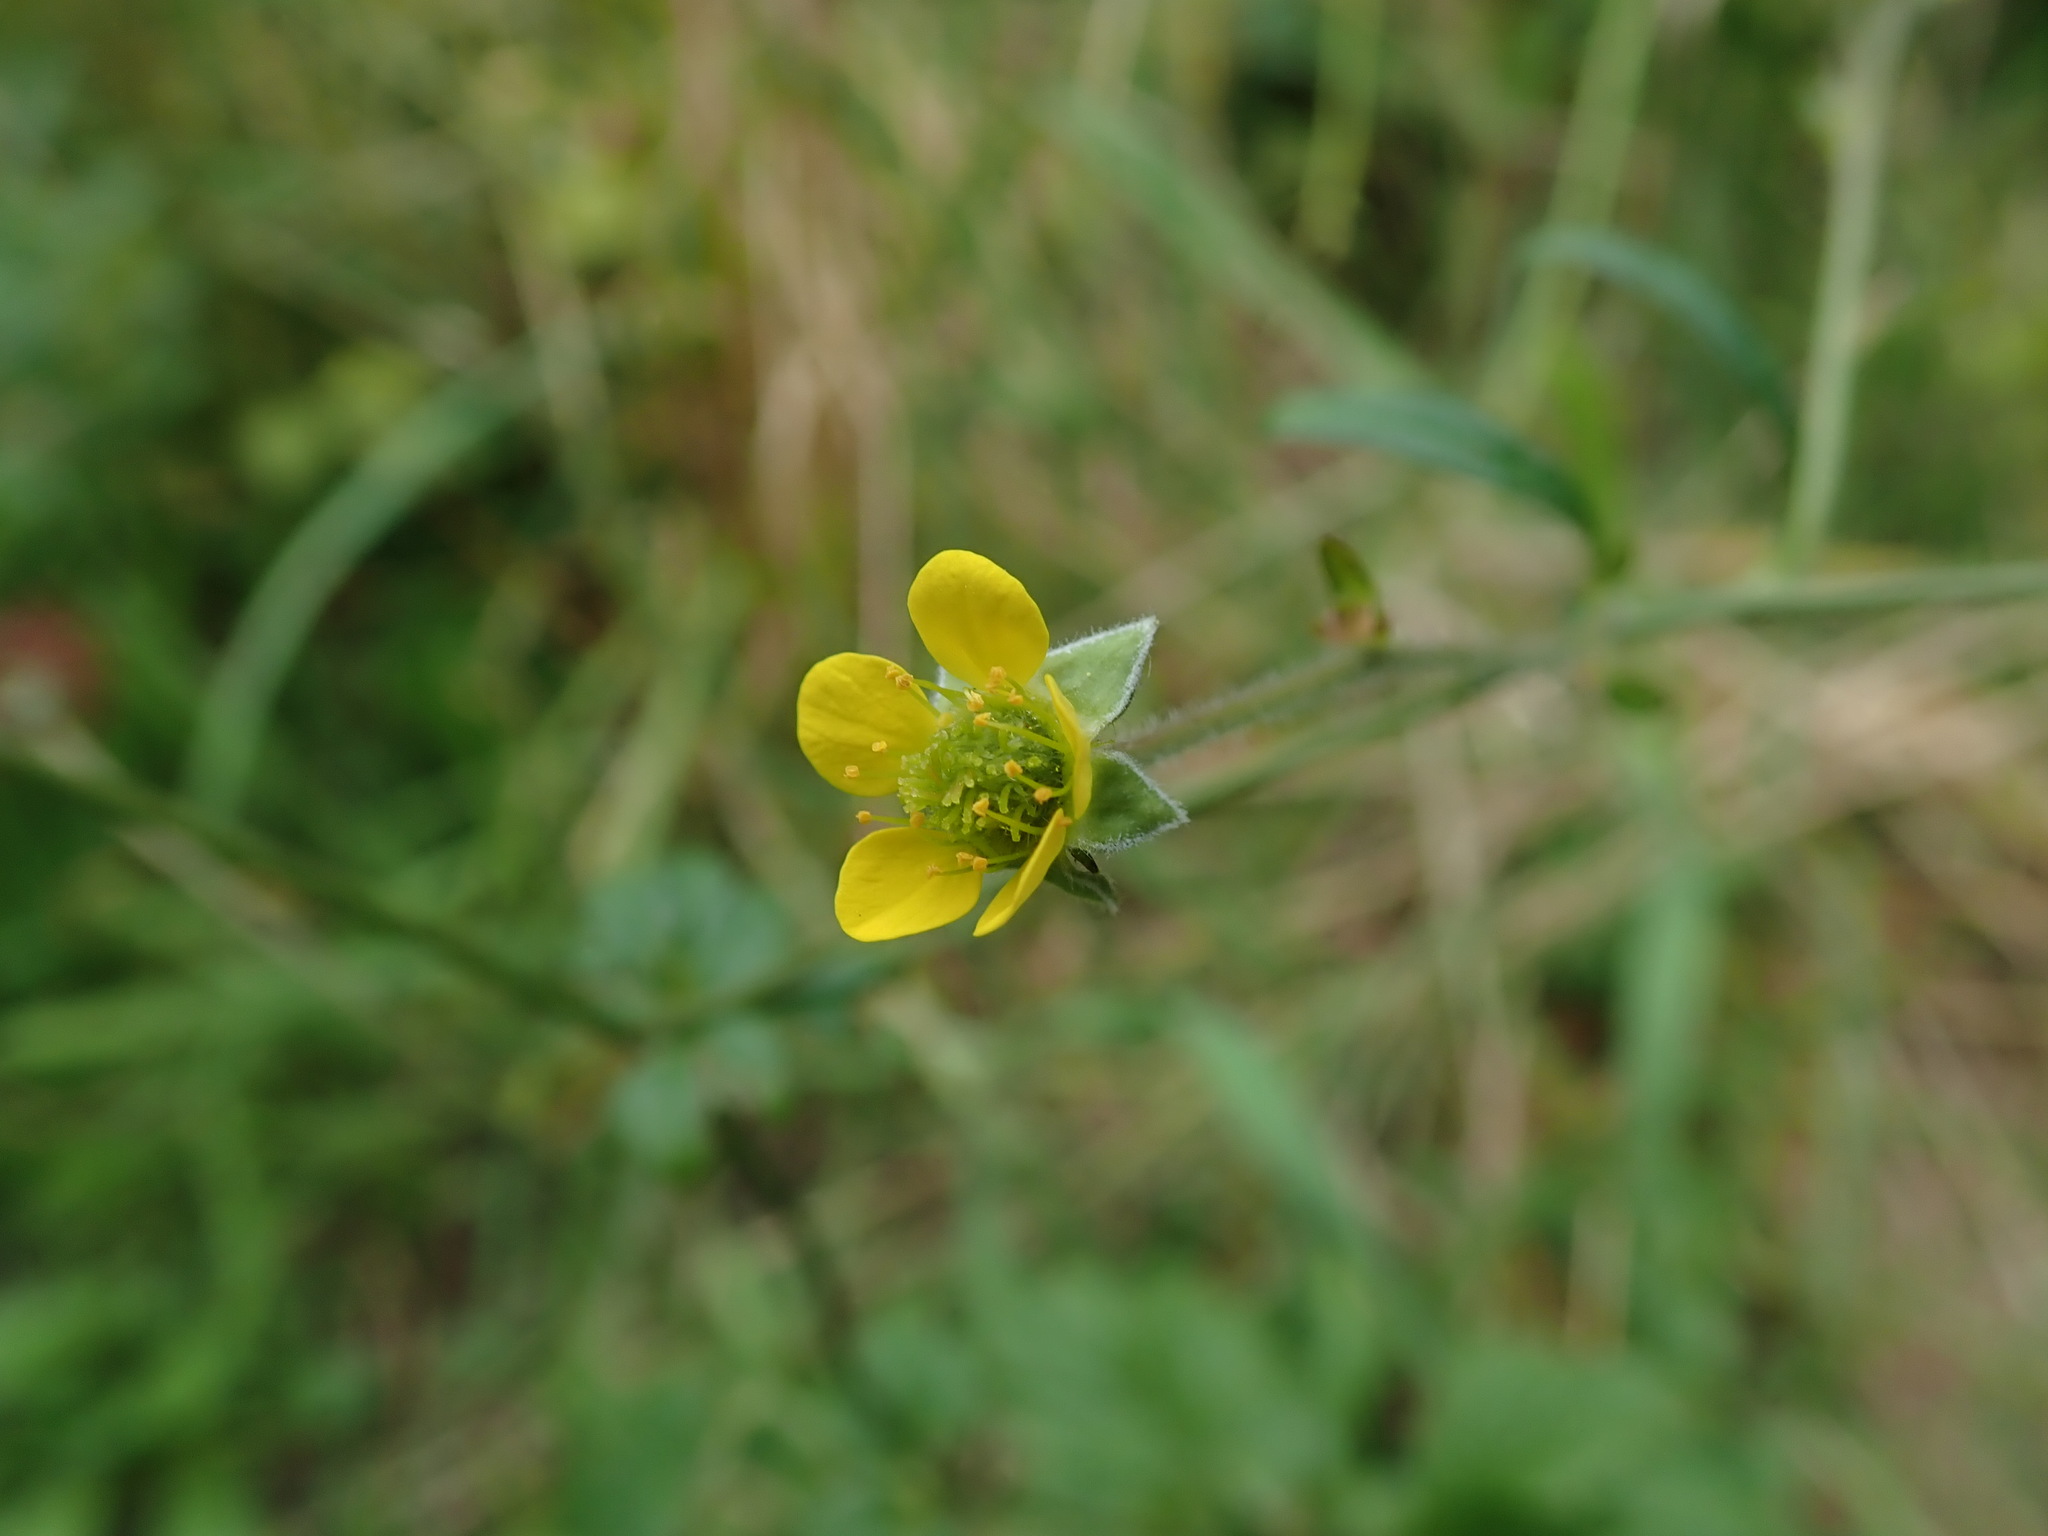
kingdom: Plantae
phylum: Tracheophyta
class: Magnoliopsida
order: Rosales
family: Rosaceae
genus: Geum
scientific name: Geum urbanum
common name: Wood avens
